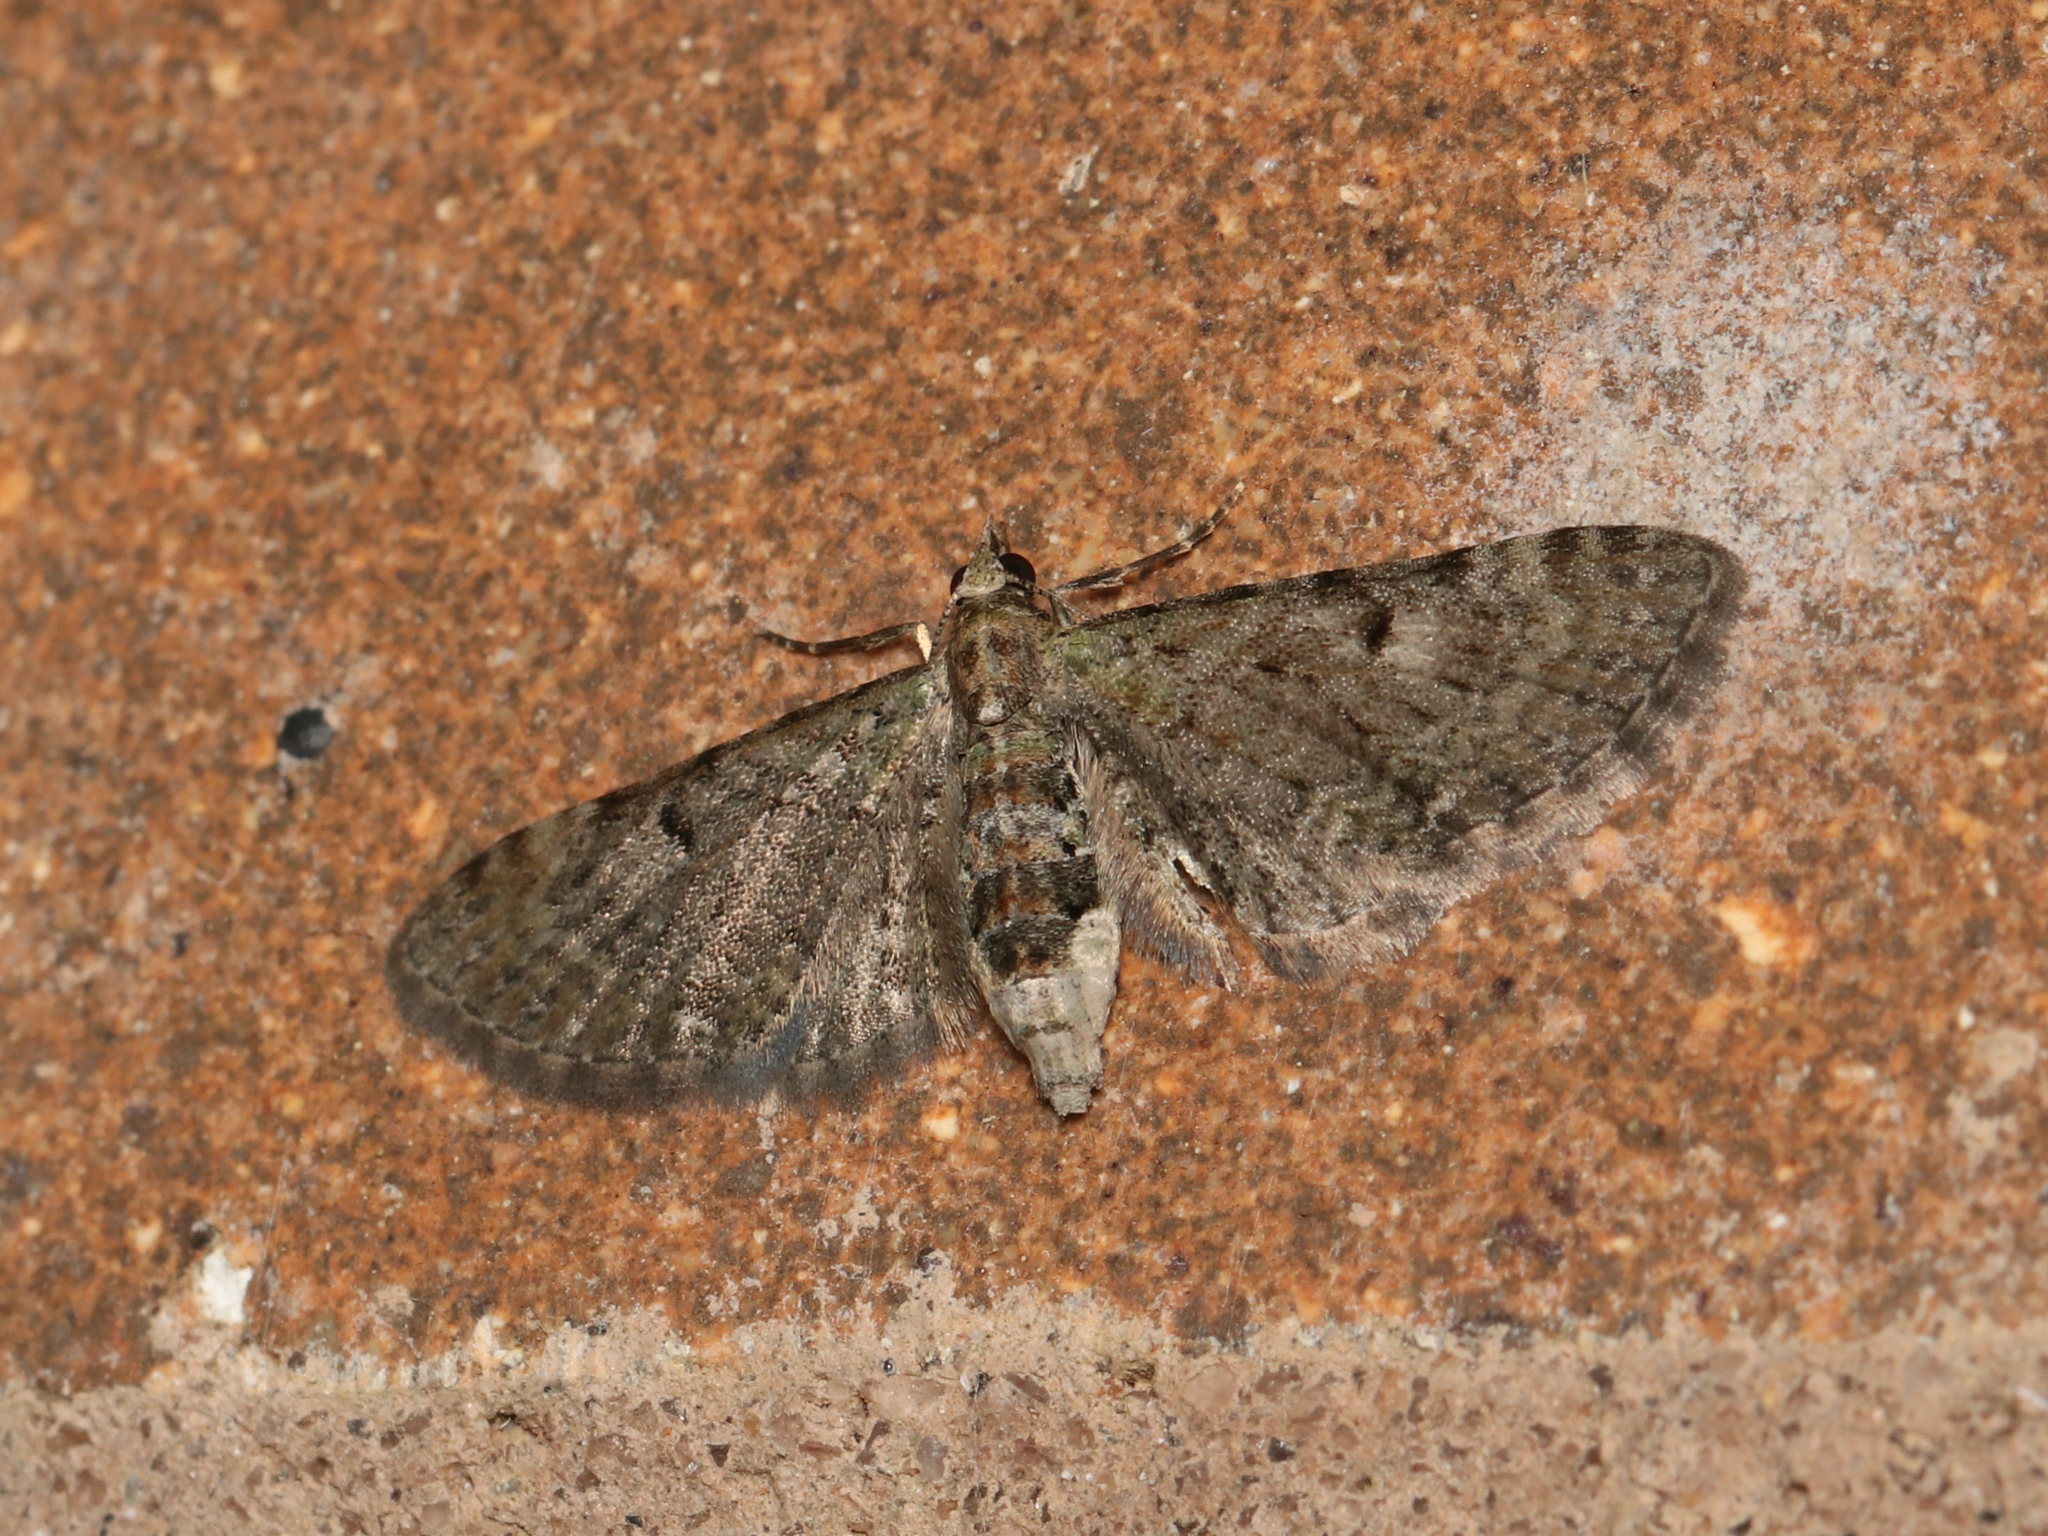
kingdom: Animalia
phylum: Arthropoda
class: Insecta
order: Lepidoptera
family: Geometridae
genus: Eupithecia
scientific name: Eupithecia miserulata
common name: Common eupithecia
